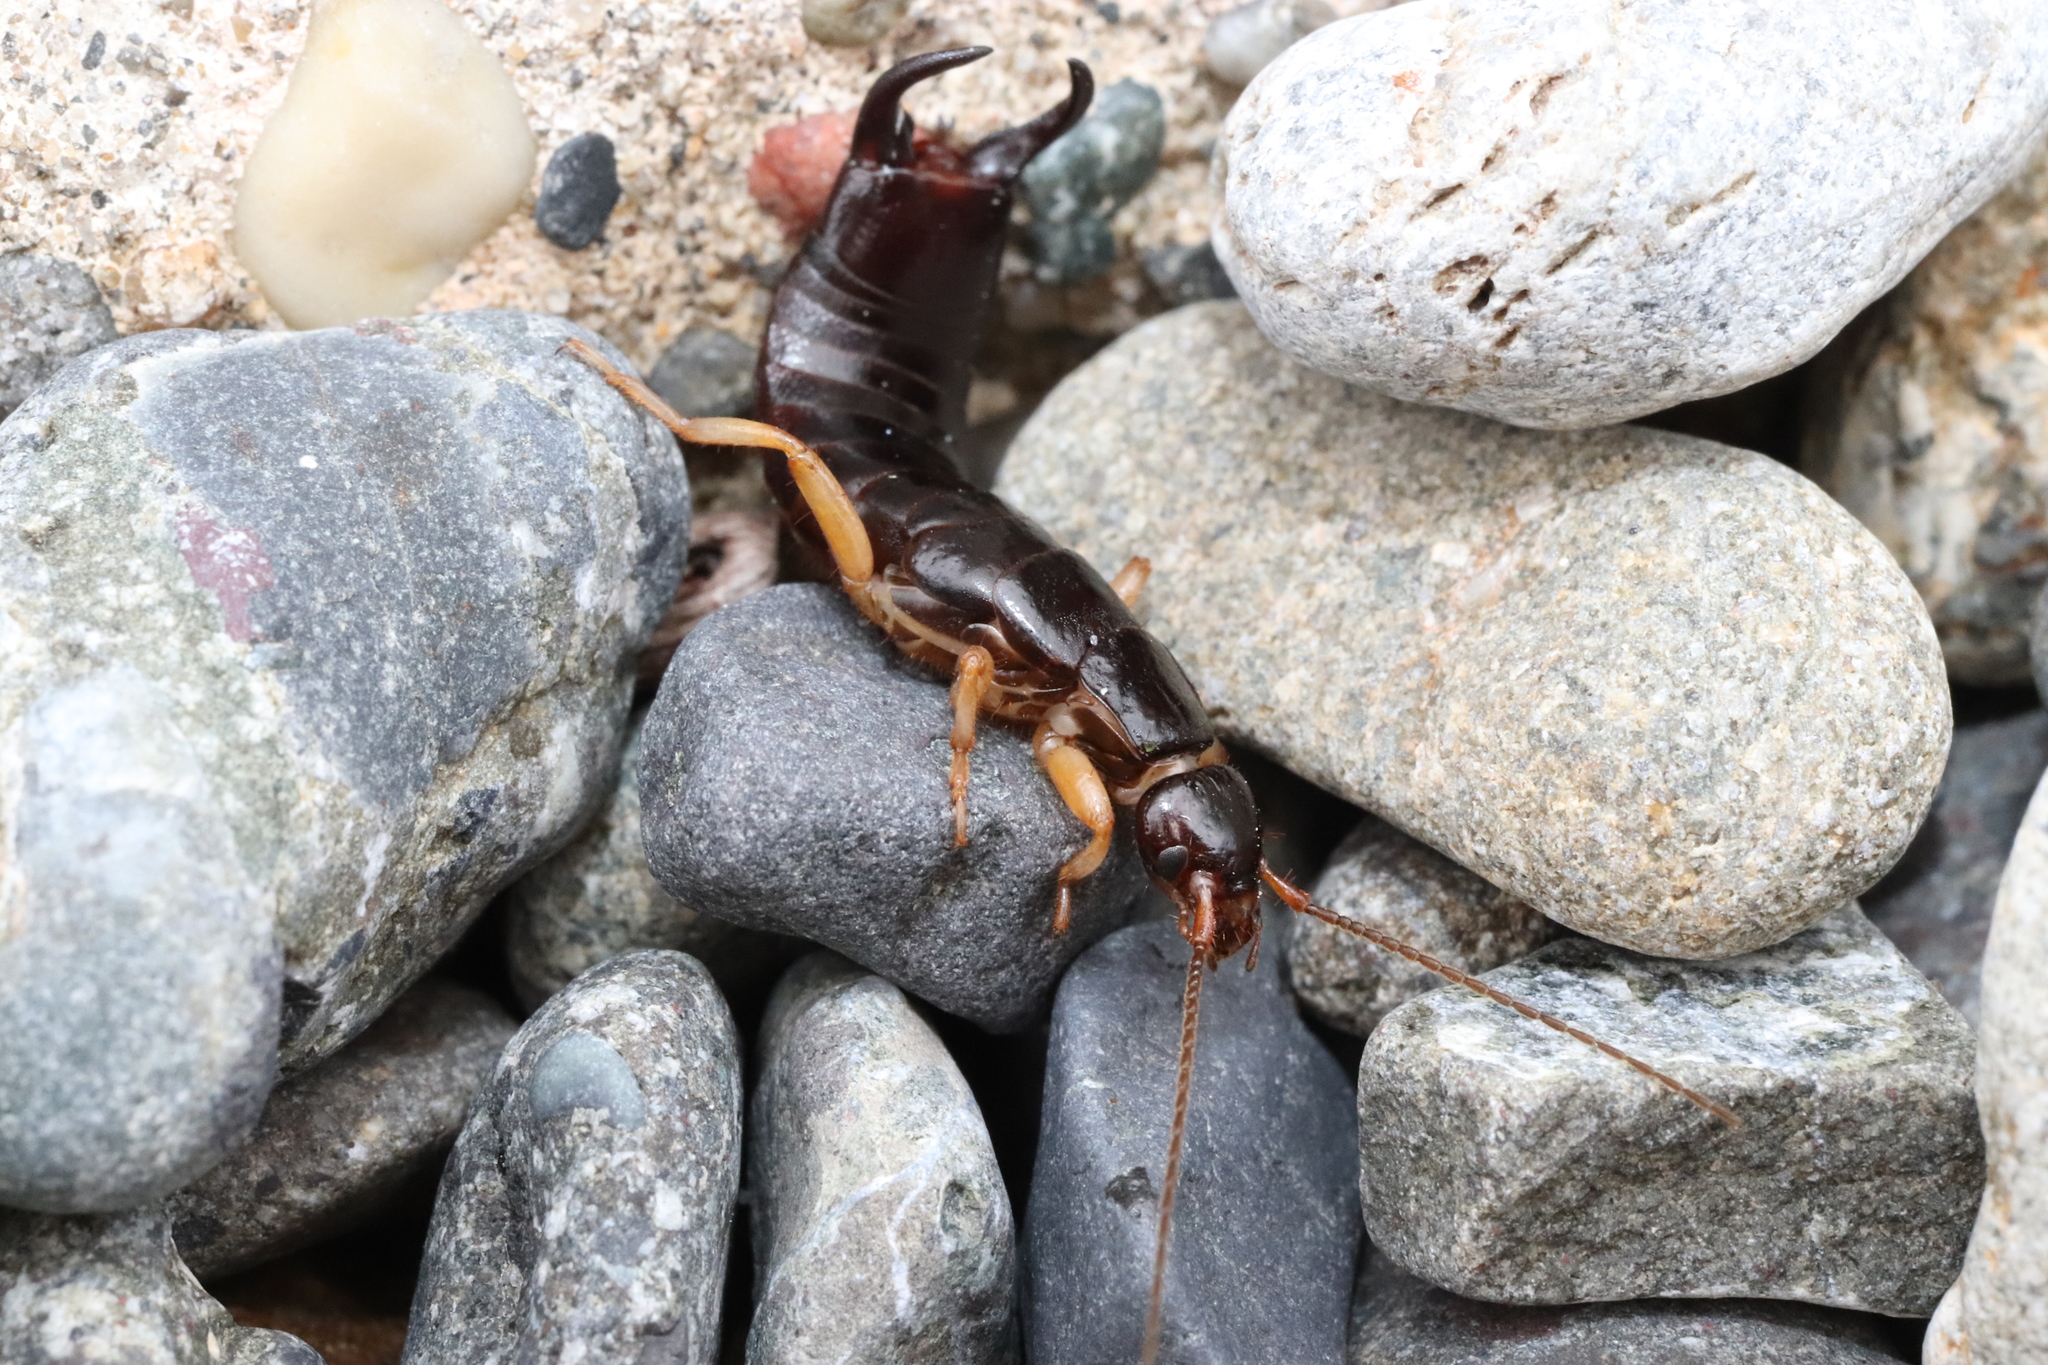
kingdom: Animalia
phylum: Arthropoda
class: Insecta
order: Dermaptera
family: Anisolabididae
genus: Anisolabis
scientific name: Anisolabis maritima
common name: Maritime earwig
